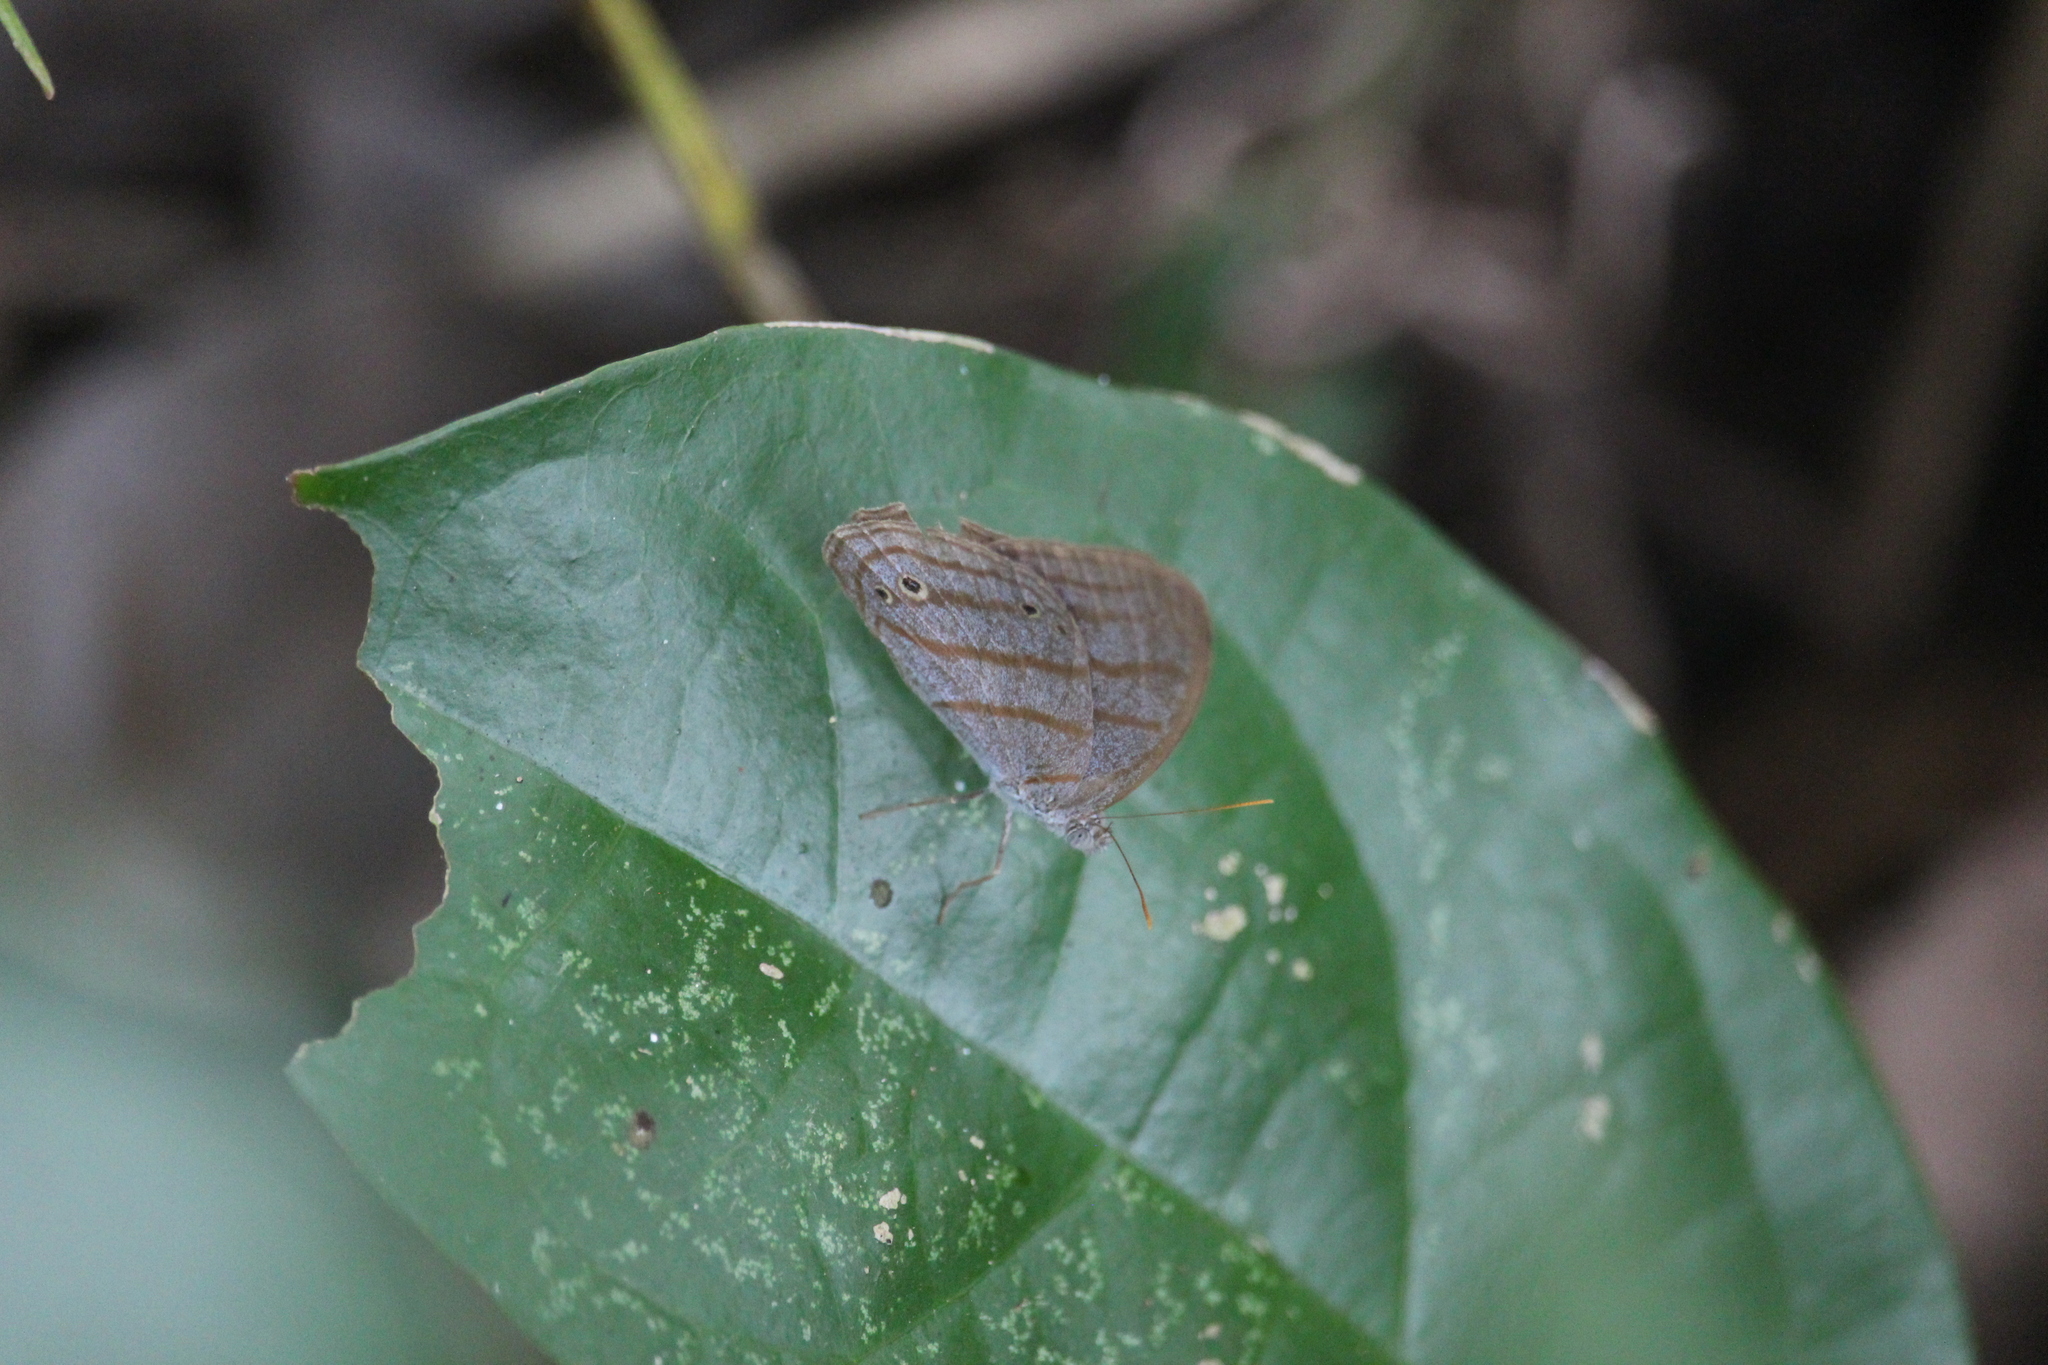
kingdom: Animalia
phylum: Arthropoda
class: Insecta
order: Lepidoptera
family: Nymphalidae
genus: Cepheuptychia
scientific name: Cepheuptychia glaucina
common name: Dirty-blue satyr
